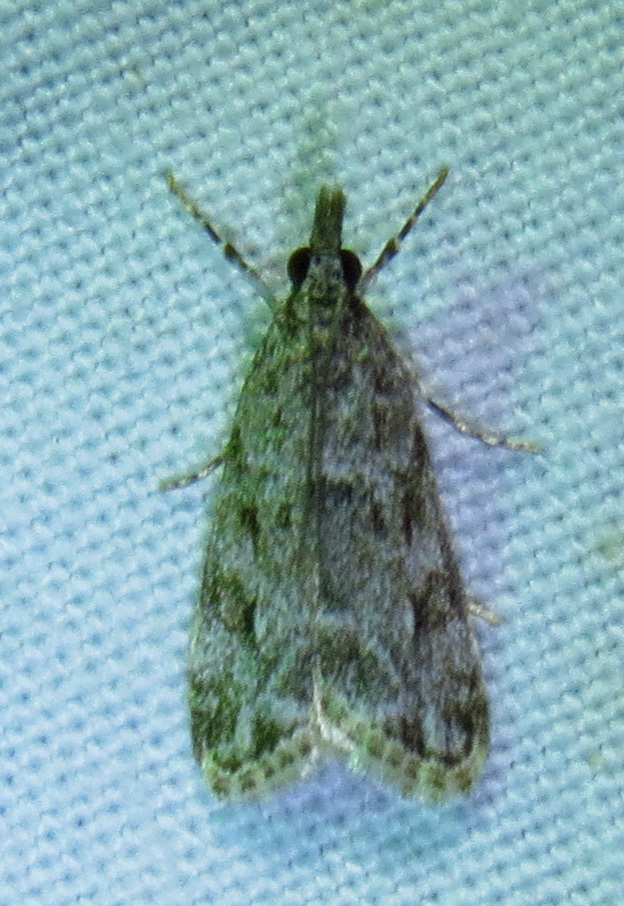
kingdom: Animalia
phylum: Arthropoda
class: Insecta
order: Lepidoptera
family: Crambidae
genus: Eudonia
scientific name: Eudonia heterosalis
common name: Mcdunnough's eudonia
